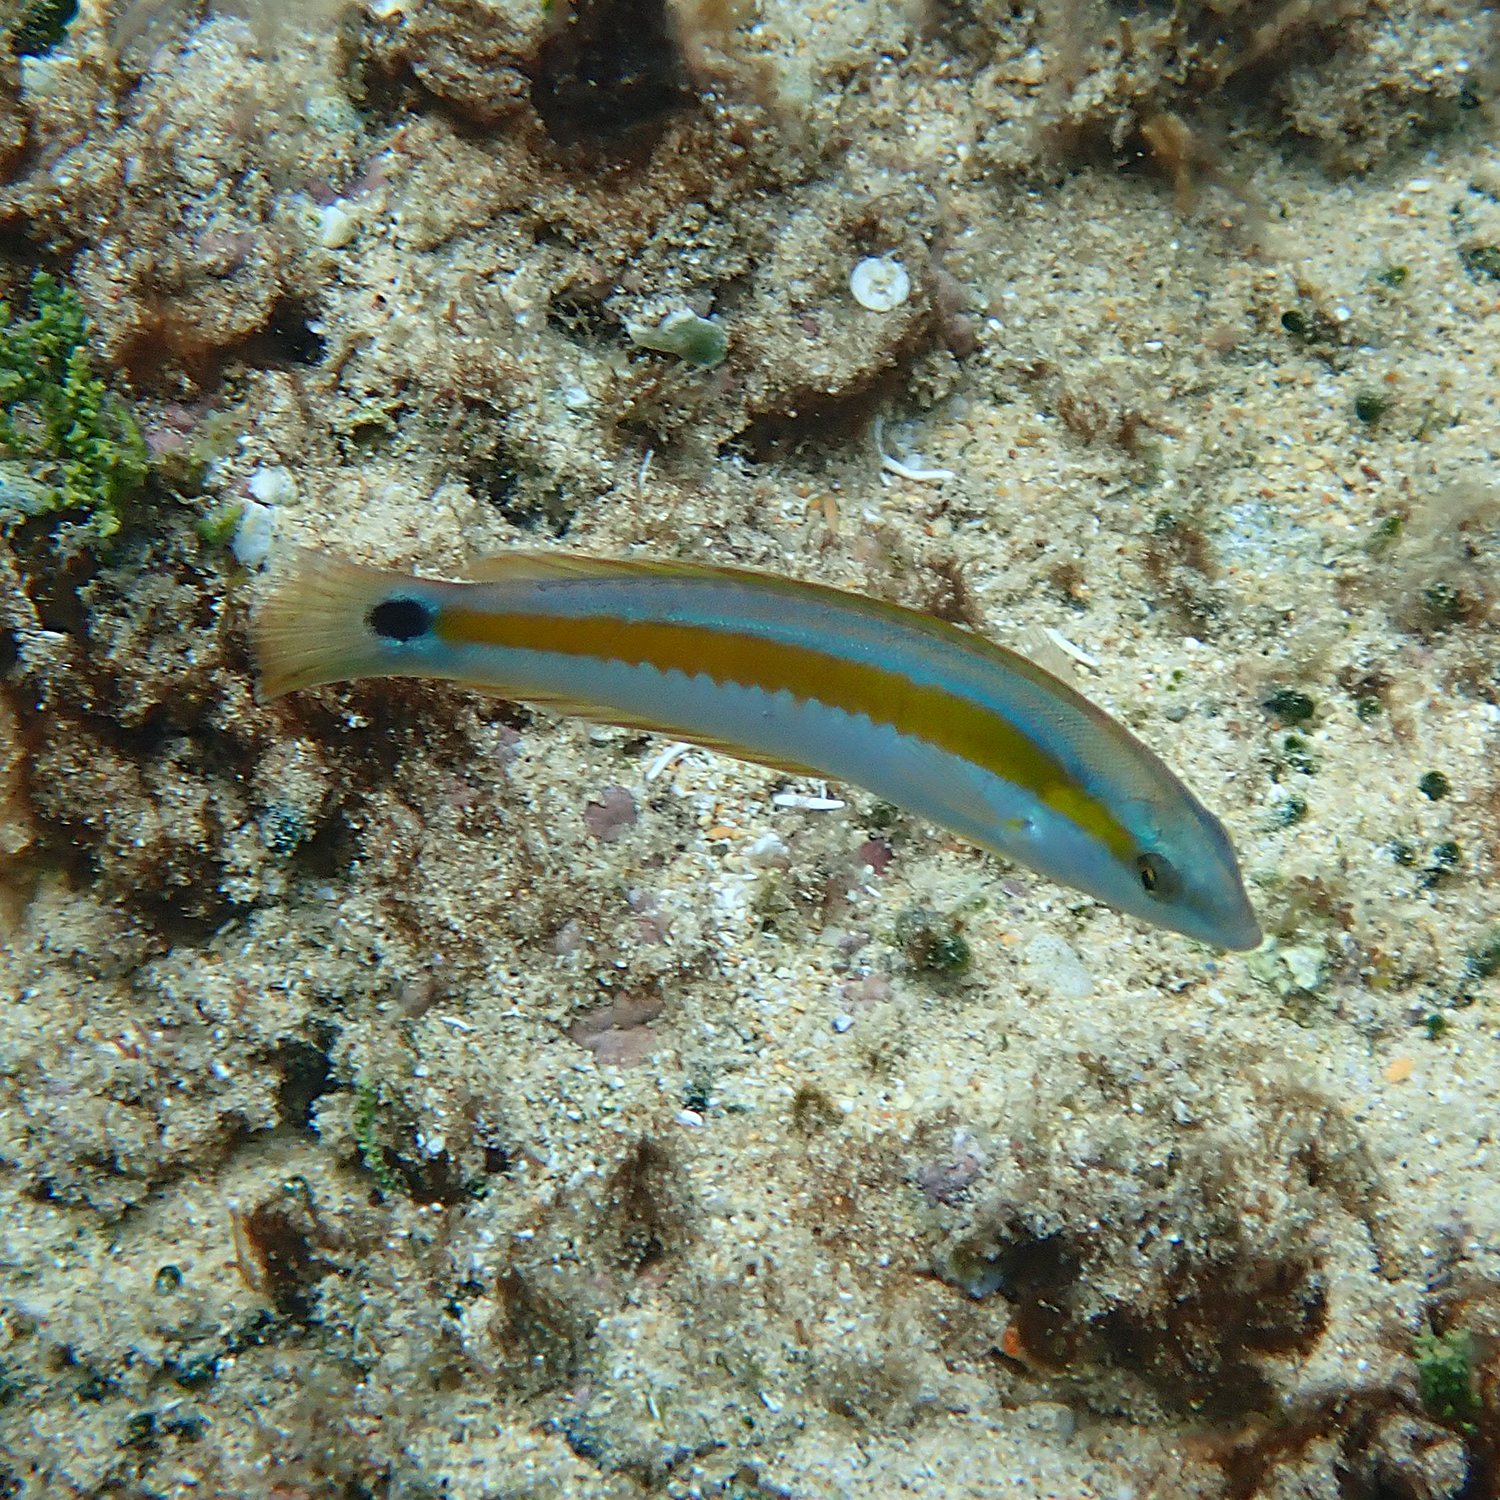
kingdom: Animalia
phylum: Chordata
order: Perciformes
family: Labridae
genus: Coris
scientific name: Coris sandeyeri
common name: Sandager's wrasse
